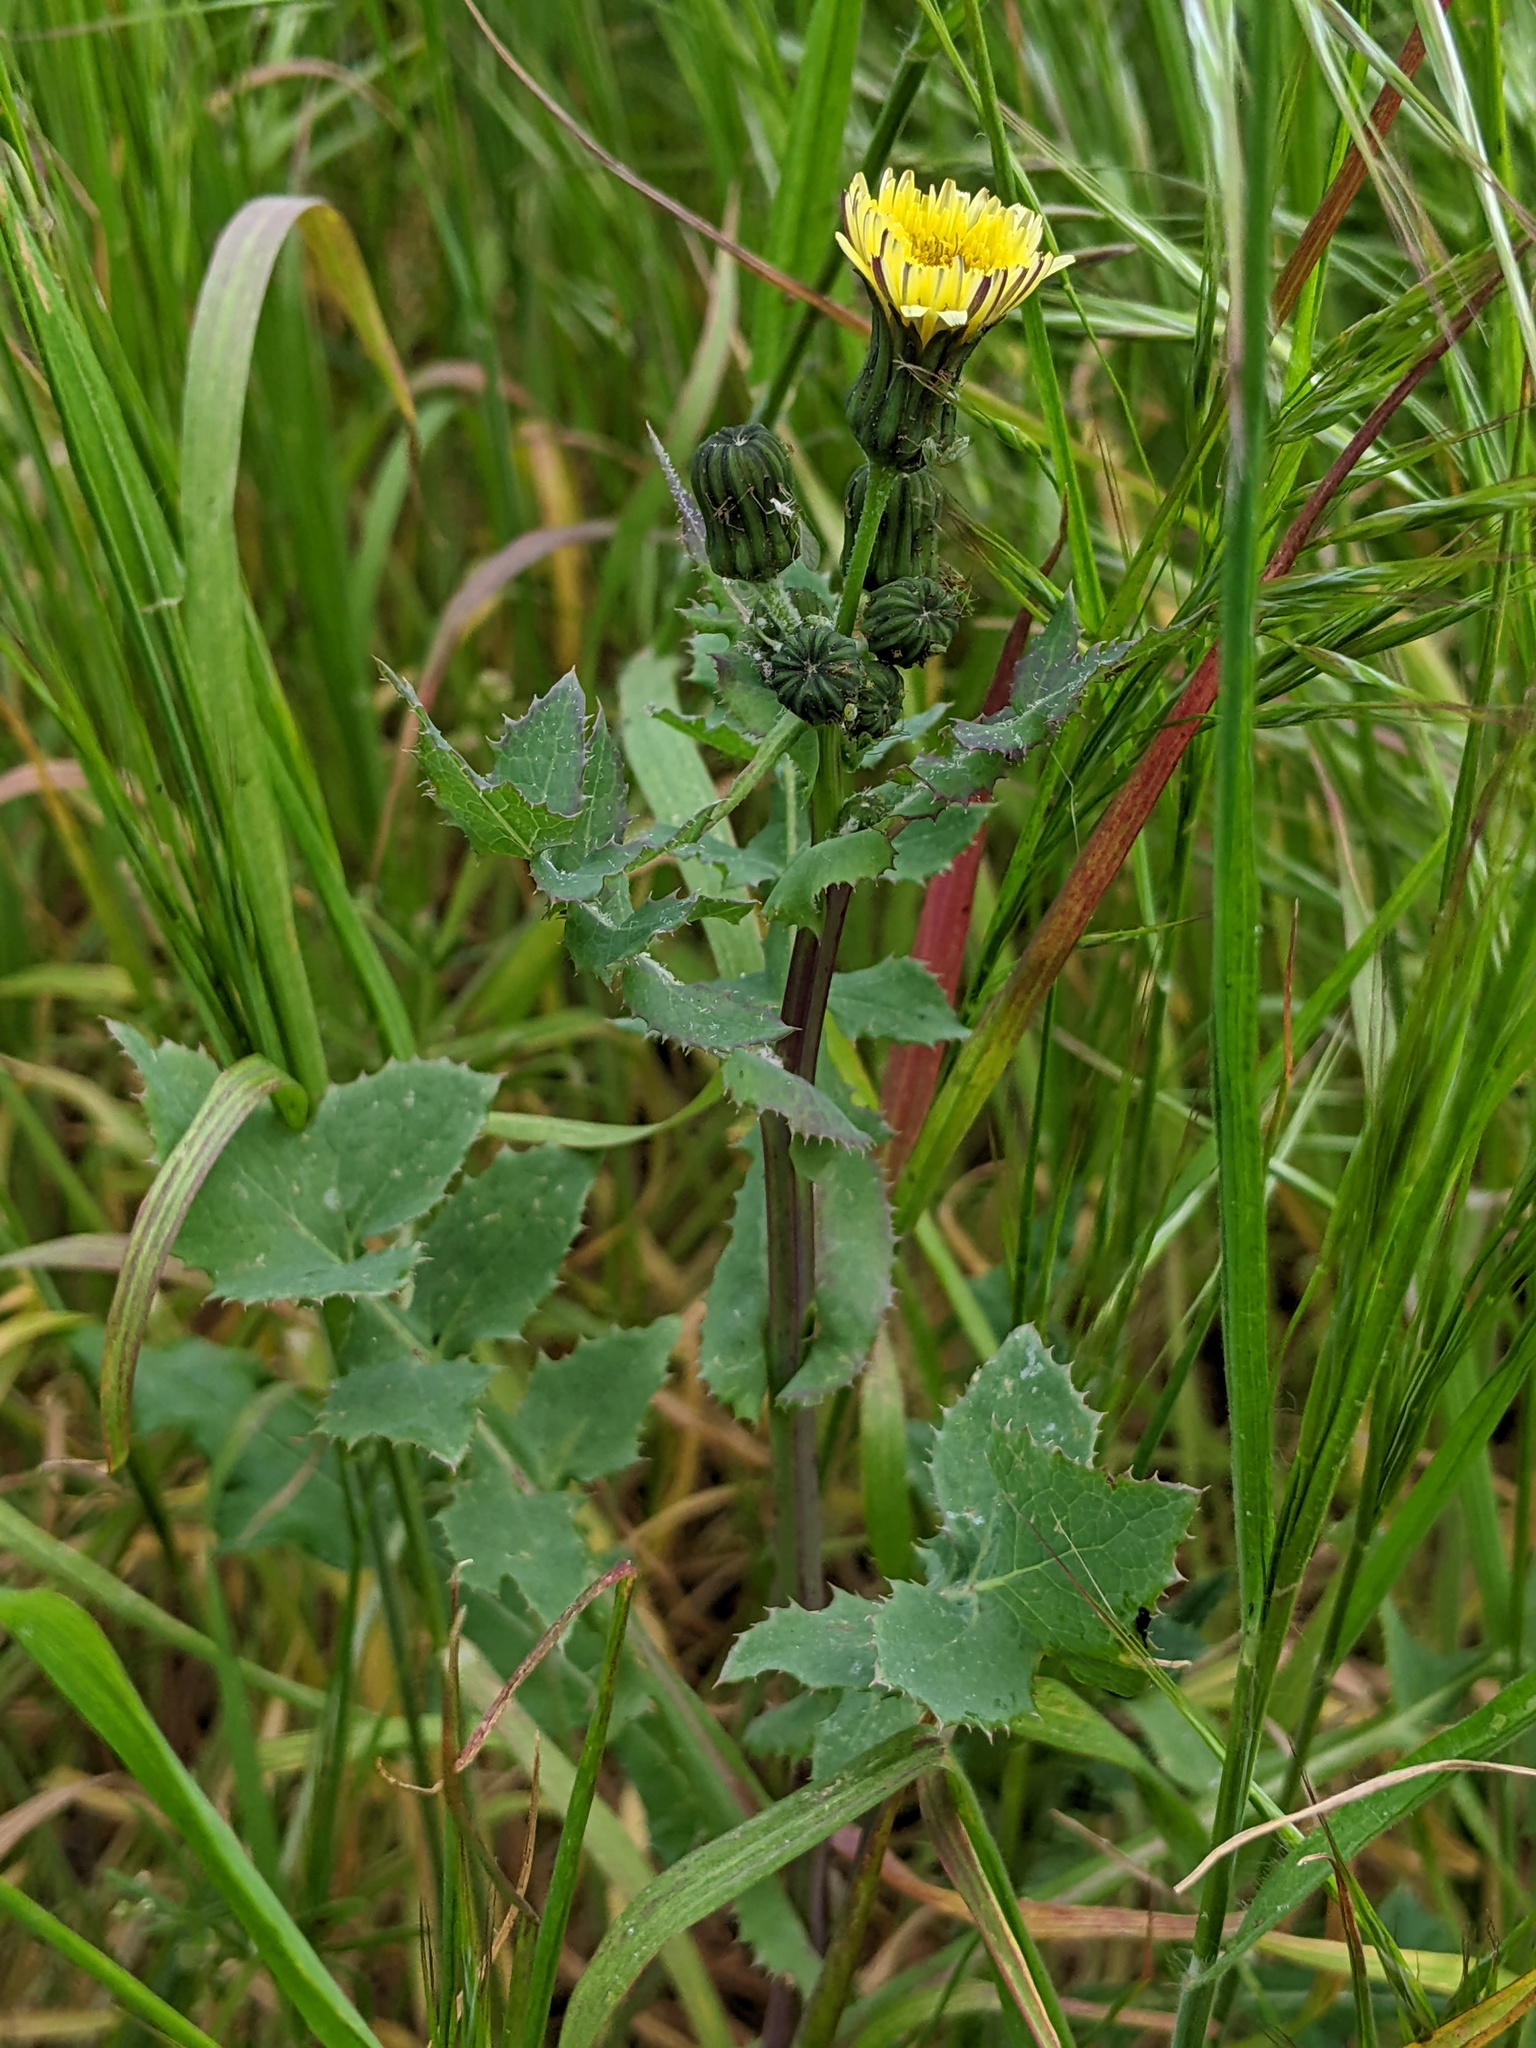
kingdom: Plantae
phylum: Tracheophyta
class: Magnoliopsida
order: Asterales
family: Asteraceae
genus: Sonchus
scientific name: Sonchus oleraceus
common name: Common sowthistle
